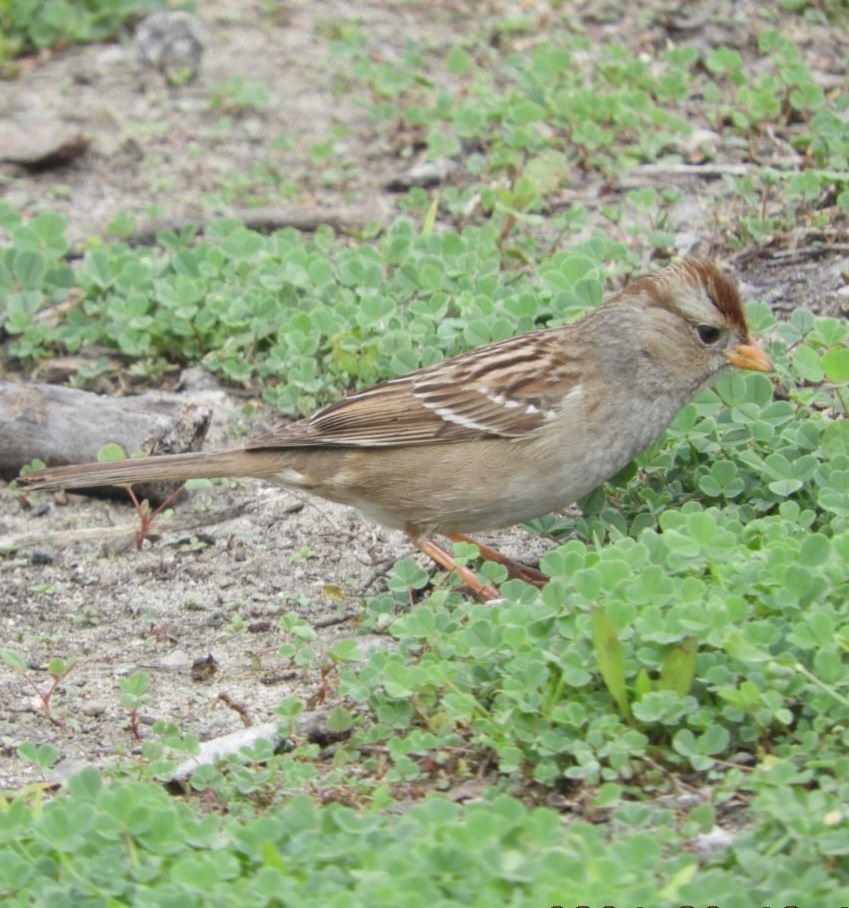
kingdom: Animalia
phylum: Chordata
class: Aves
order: Passeriformes
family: Passerellidae
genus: Zonotrichia
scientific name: Zonotrichia leucophrys
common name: White-crowned sparrow
